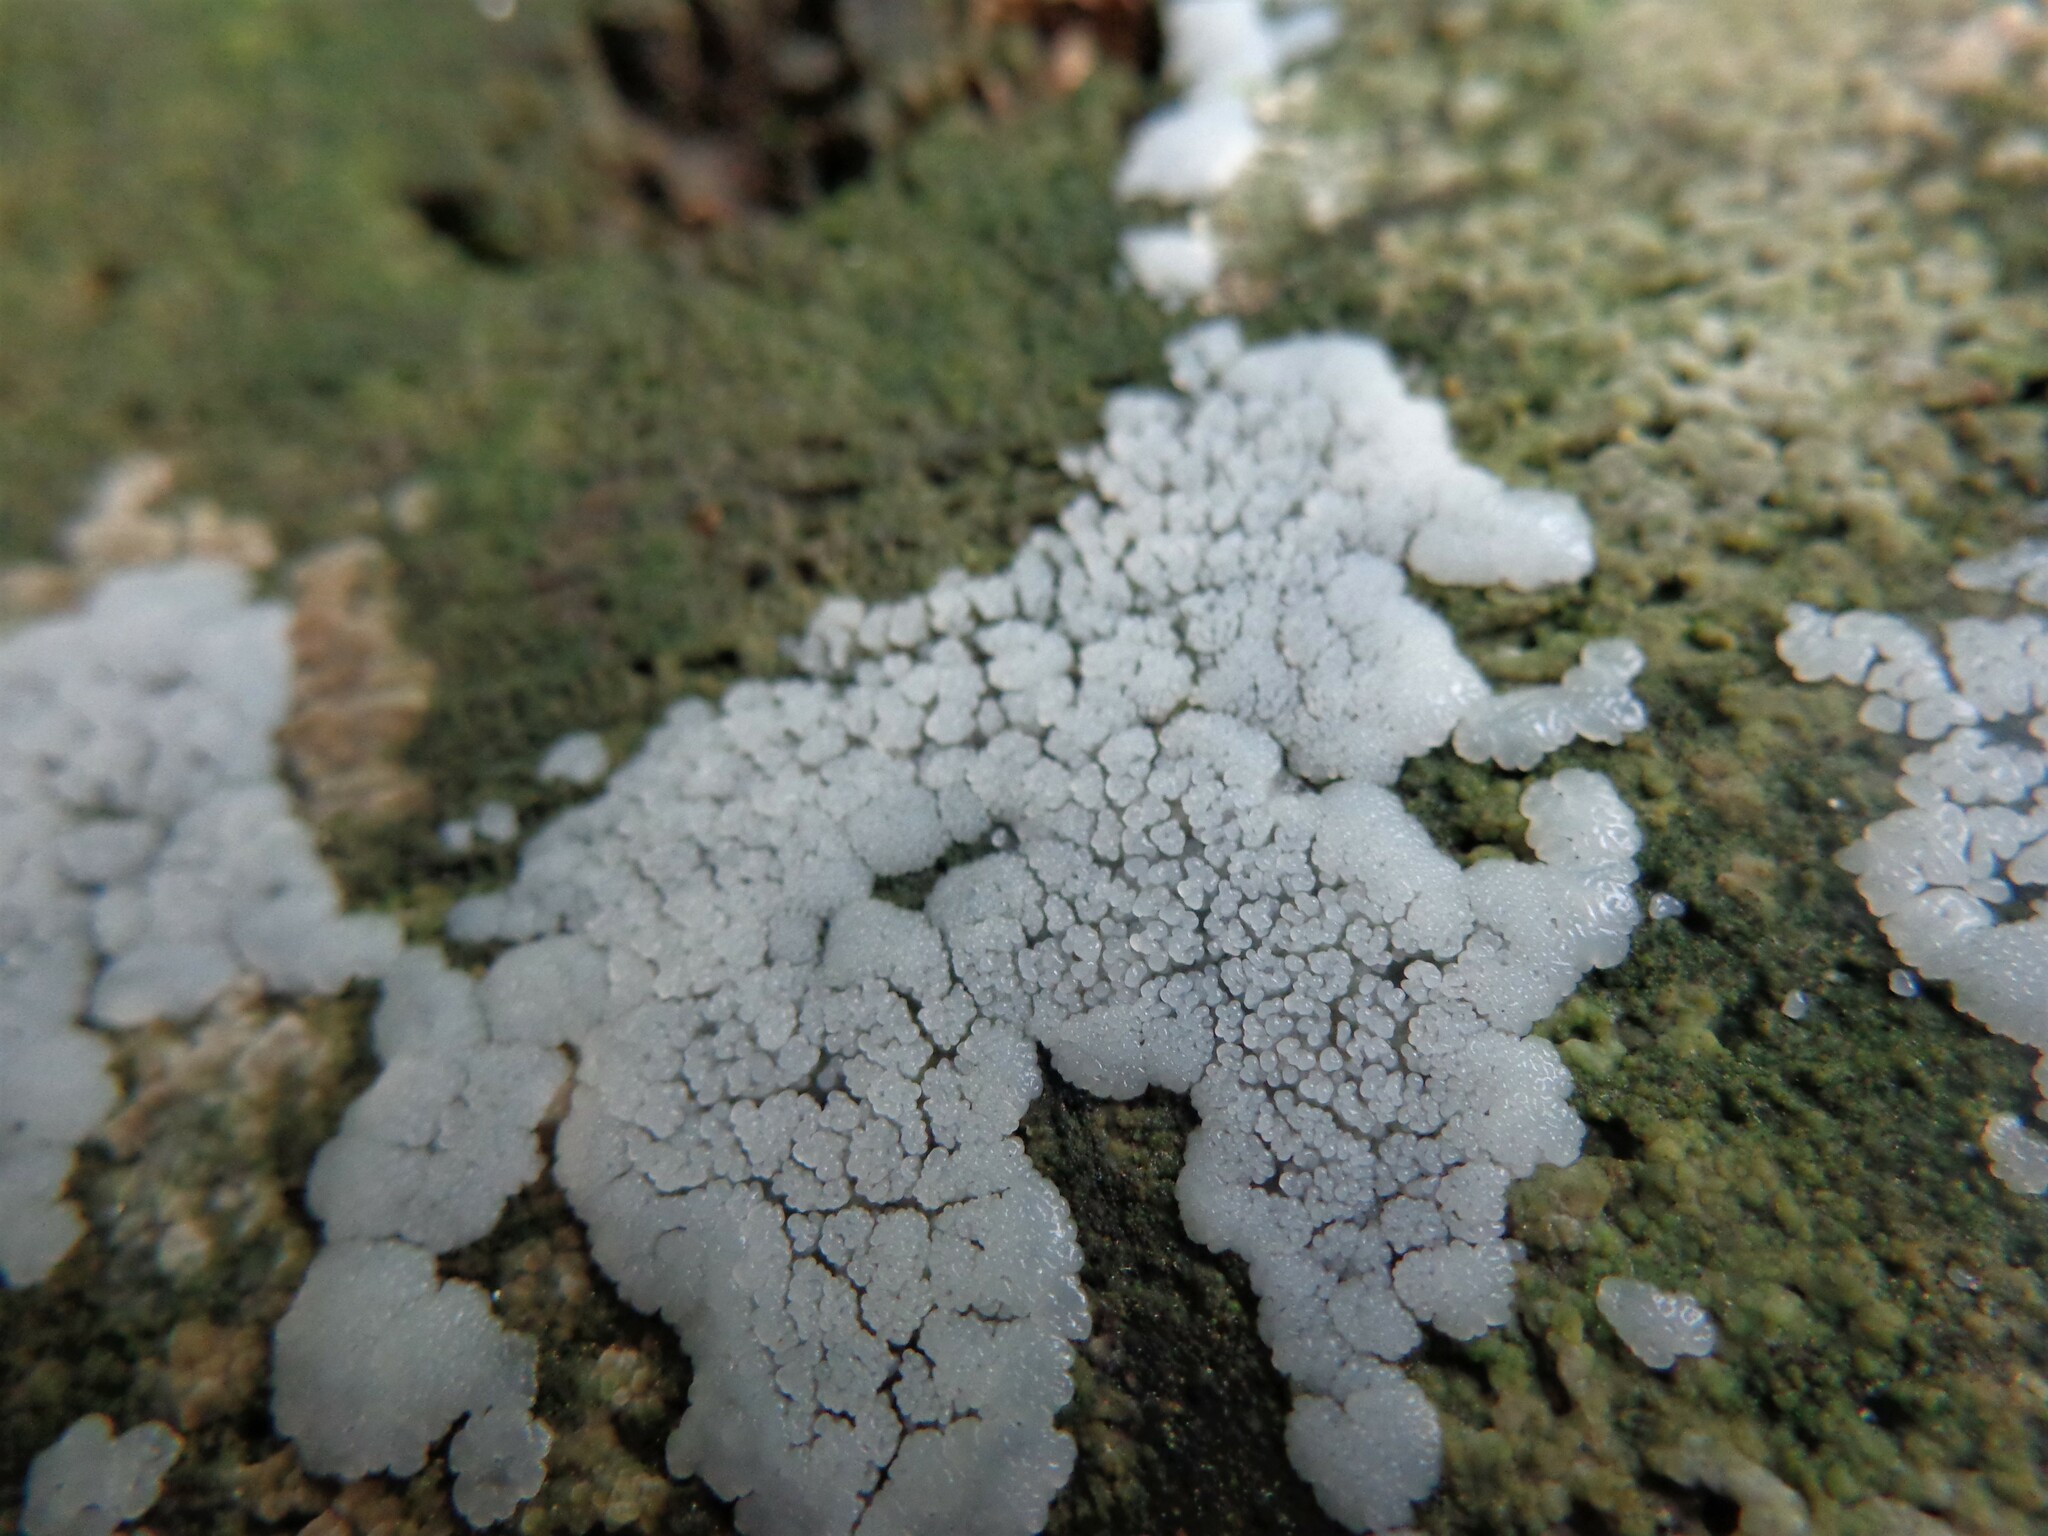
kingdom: Protozoa
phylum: Mycetozoa
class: Protosteliomycetes
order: Ceratiomyxales
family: Ceratiomyxaceae
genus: Ceratiomyxa
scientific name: Ceratiomyxa fruticulosa
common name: Honeycomb coral slime mold
